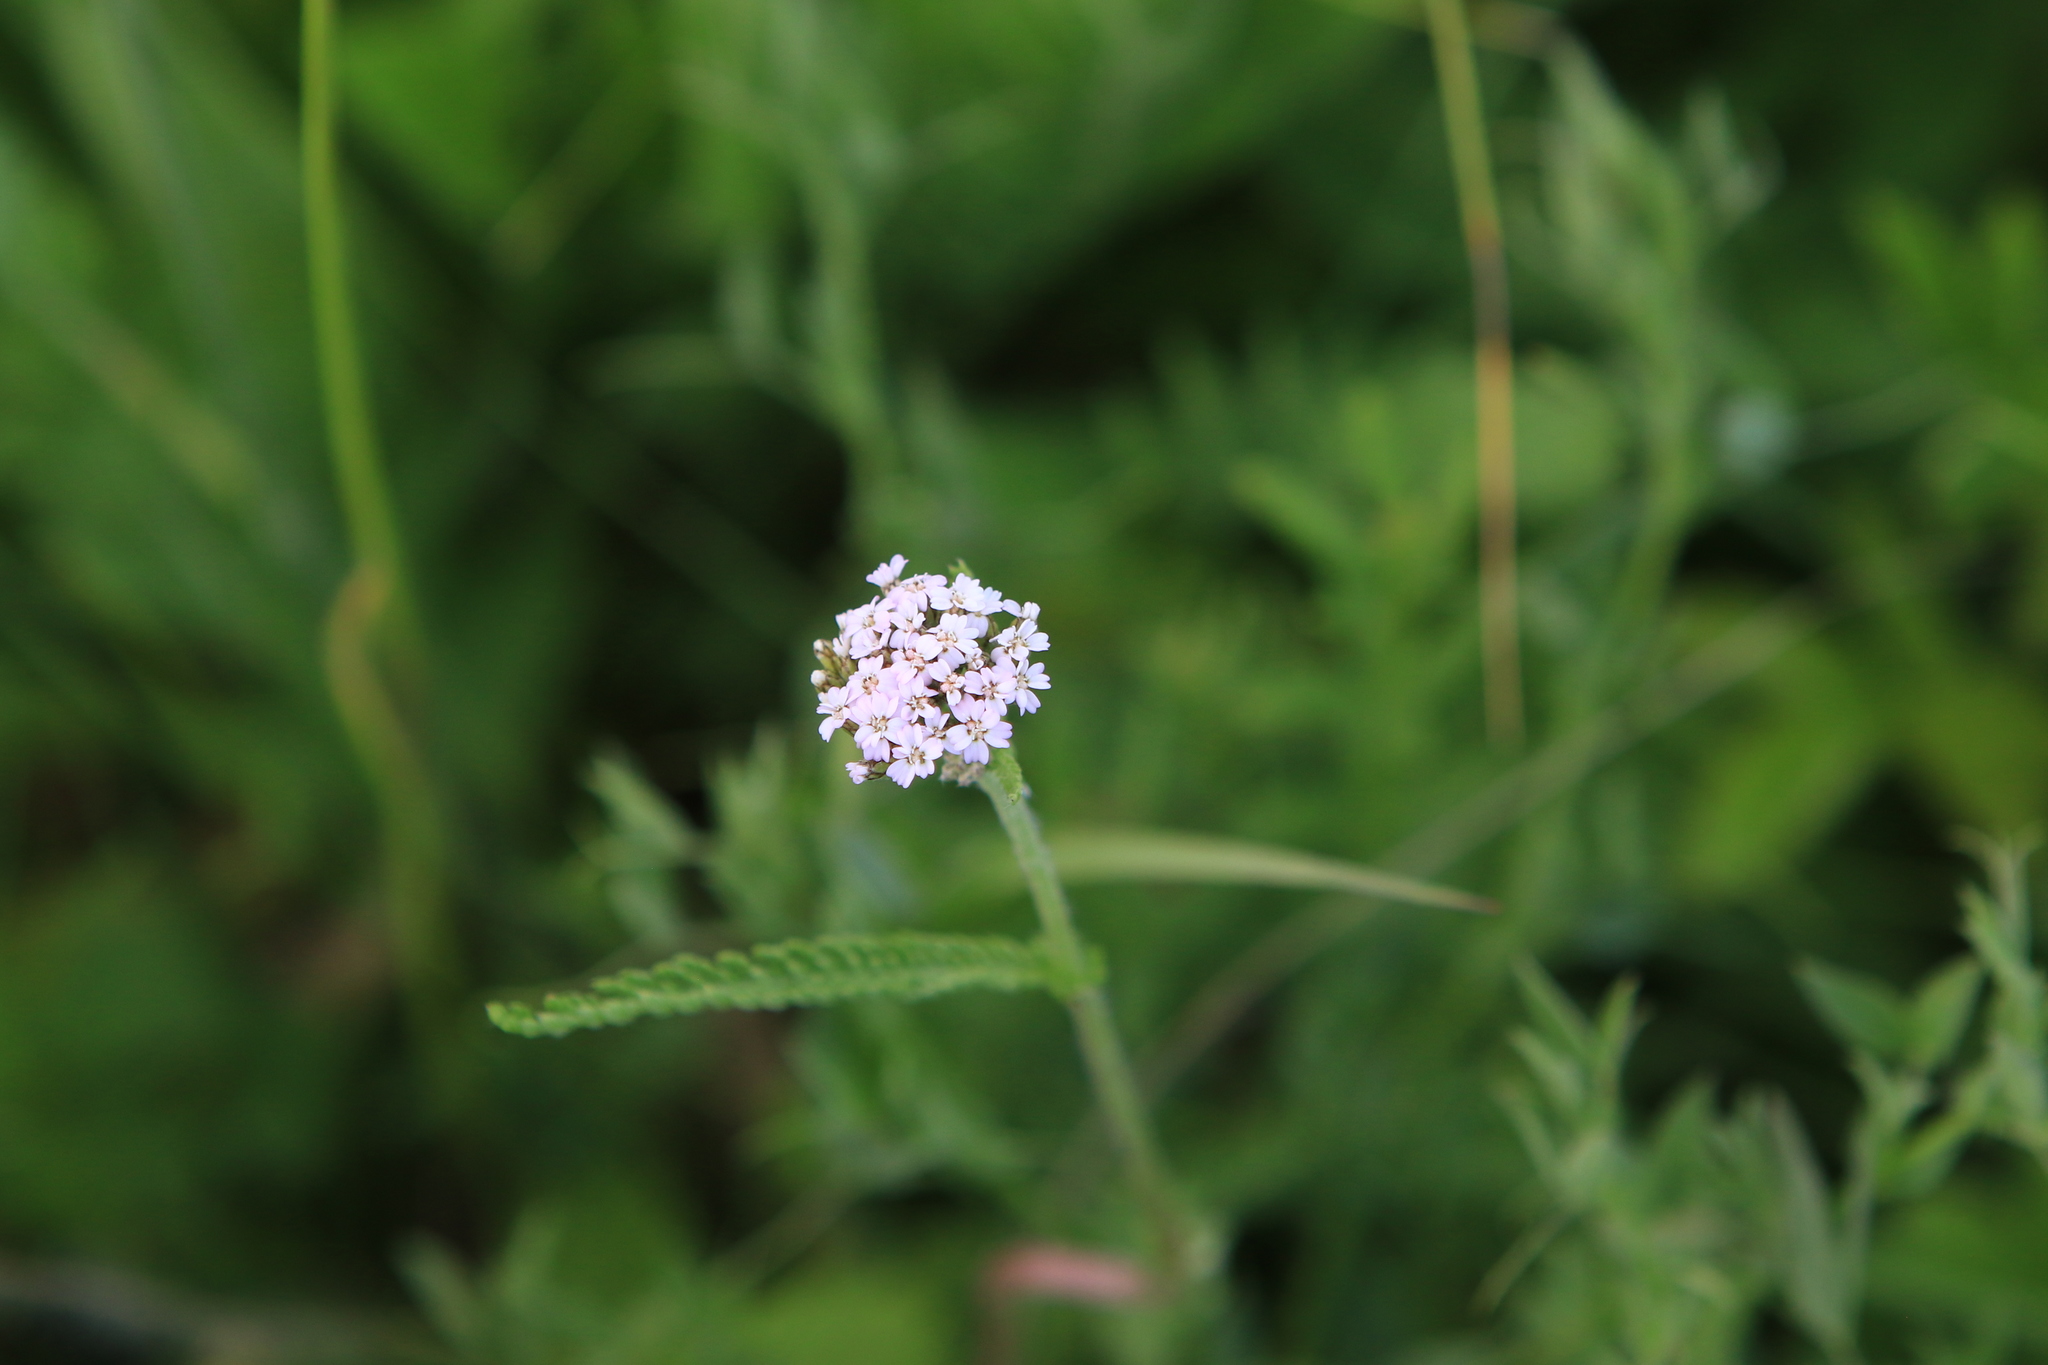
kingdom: Plantae
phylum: Tracheophyta
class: Magnoliopsida
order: Asterales
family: Asteraceae
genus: Achillea
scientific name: Achillea millefolium
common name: Yarrow
